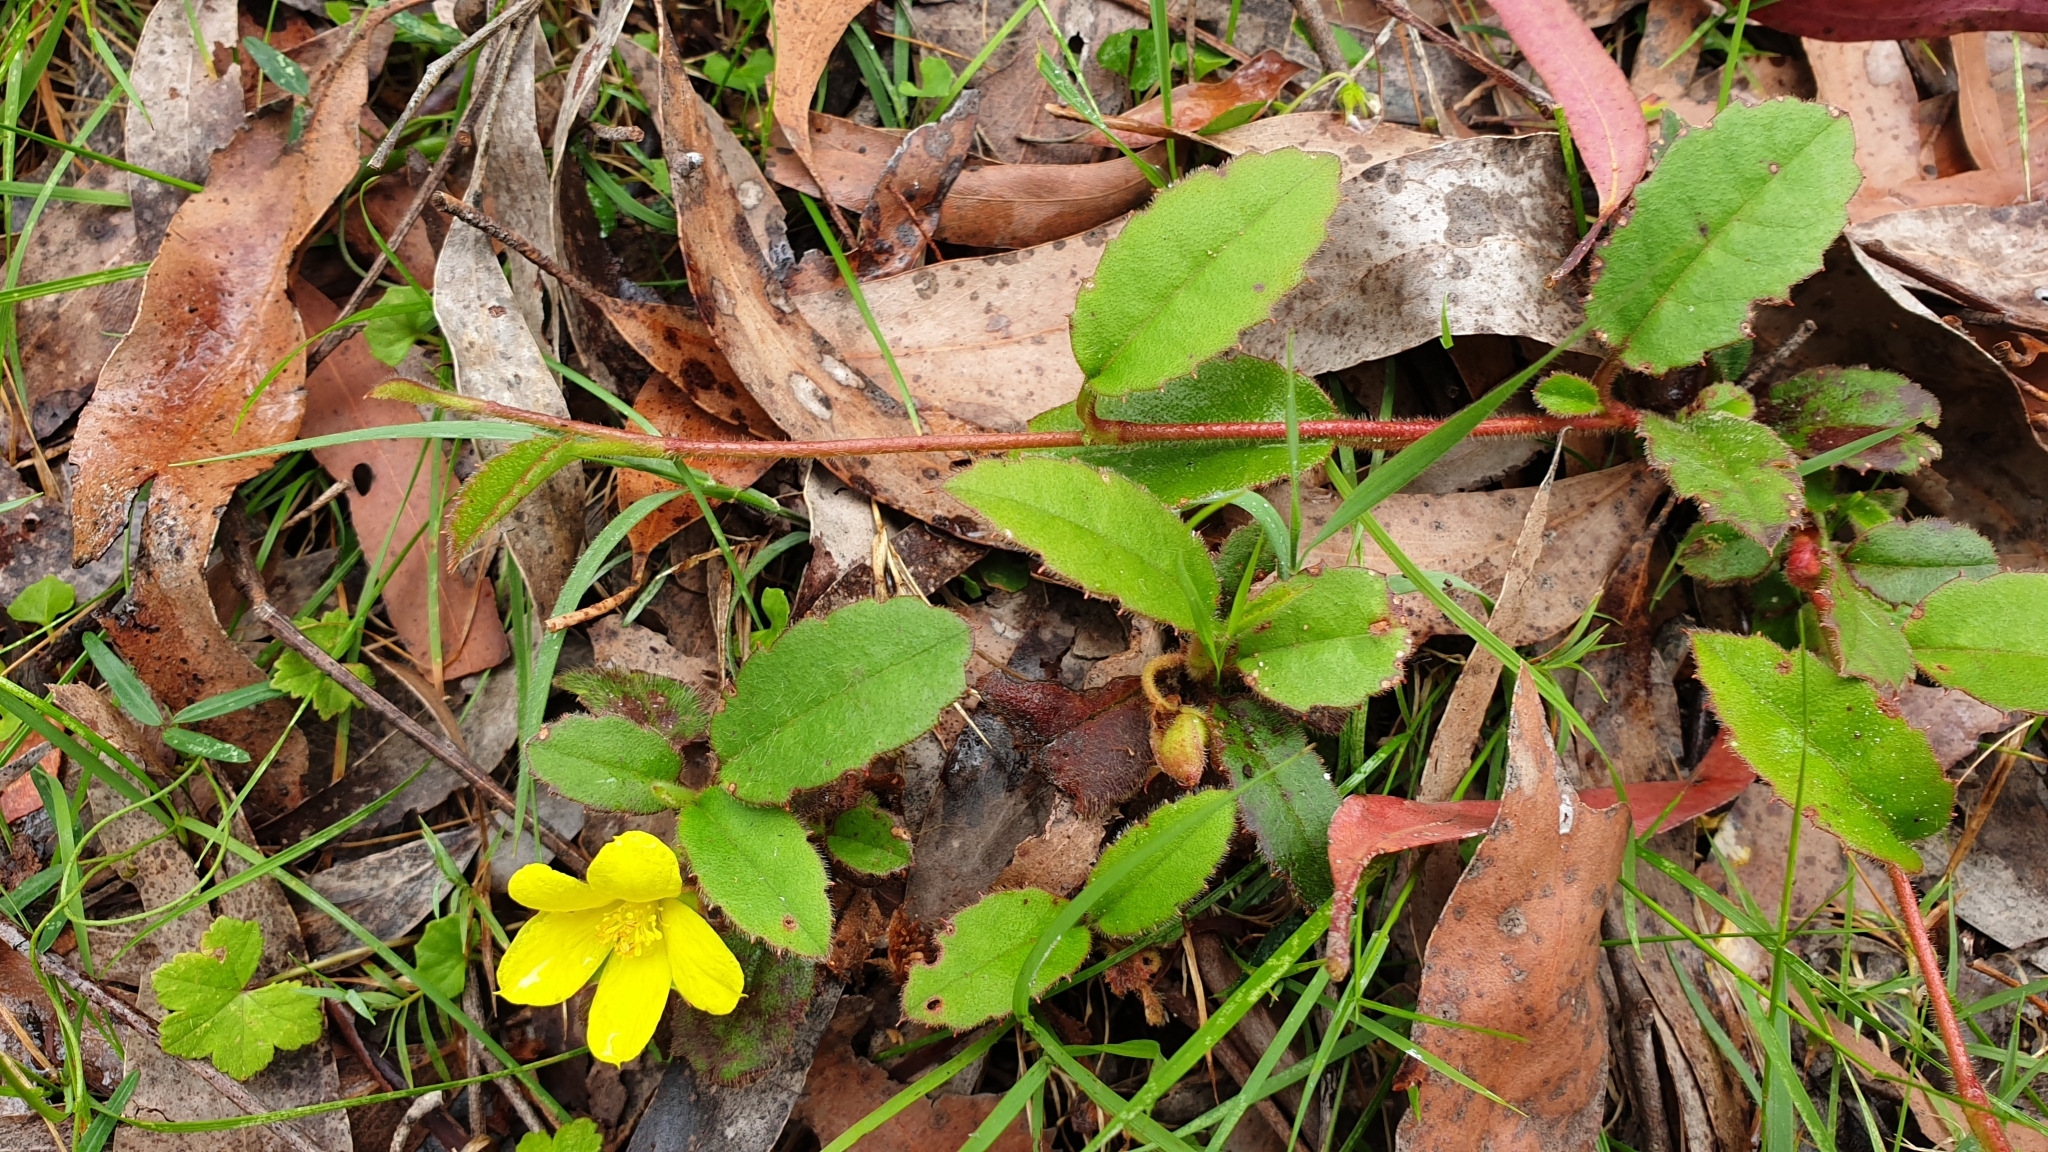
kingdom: Plantae
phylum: Tracheophyta
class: Magnoliopsida
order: Dilleniales
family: Dilleniaceae
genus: Hibbertia
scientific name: Hibbertia dentata
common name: Trailing guinea-flower
